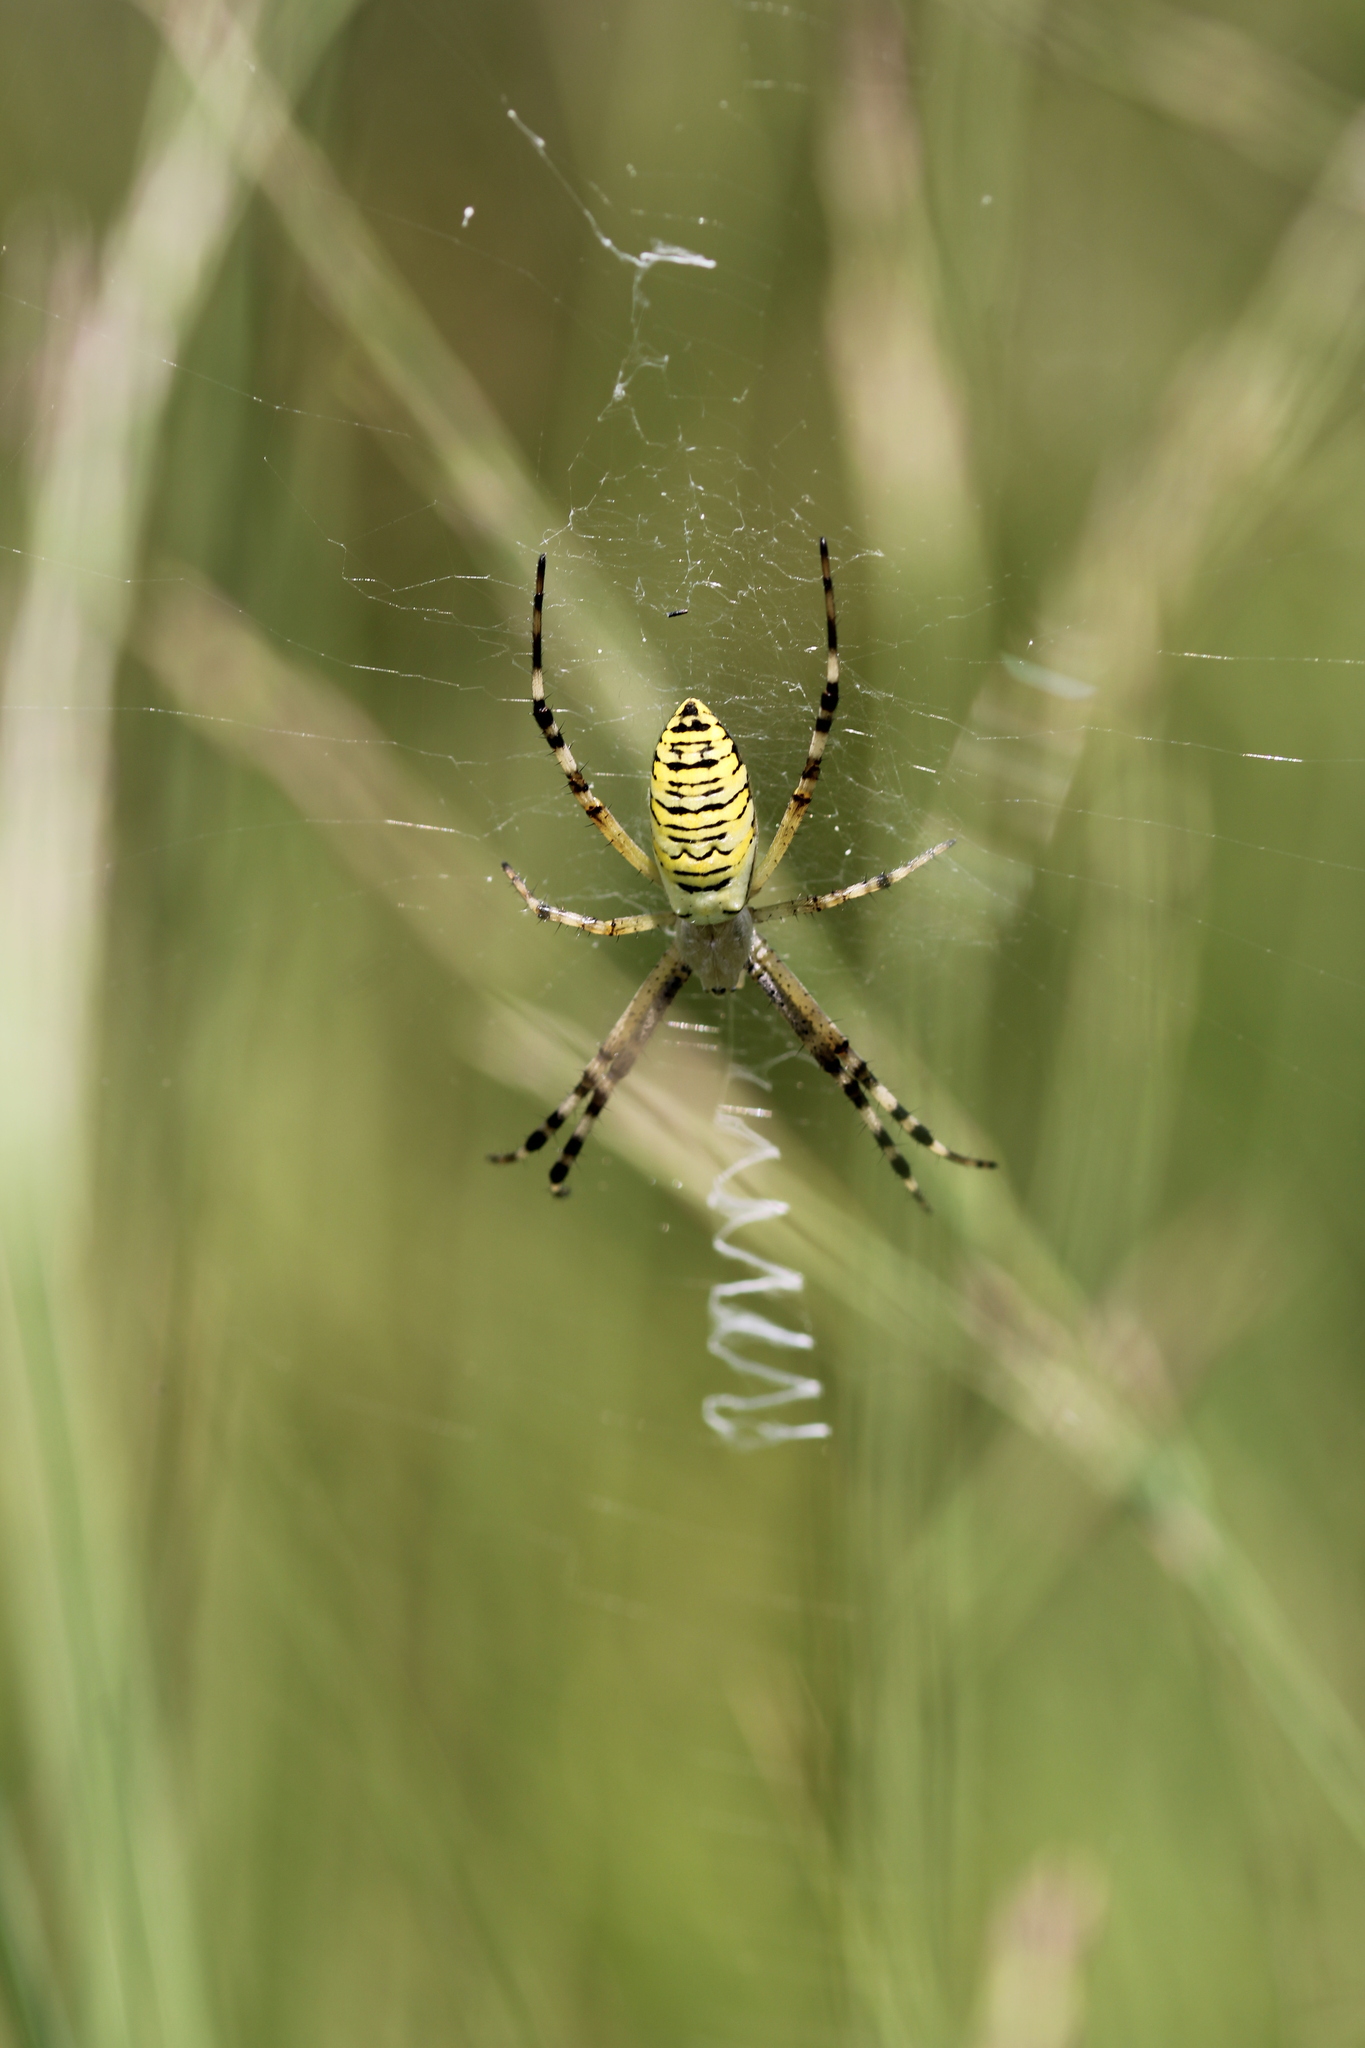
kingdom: Animalia
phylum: Arthropoda
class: Arachnida
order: Araneae
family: Araneidae
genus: Argiope
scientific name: Argiope bruennichi
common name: Wasp spider
